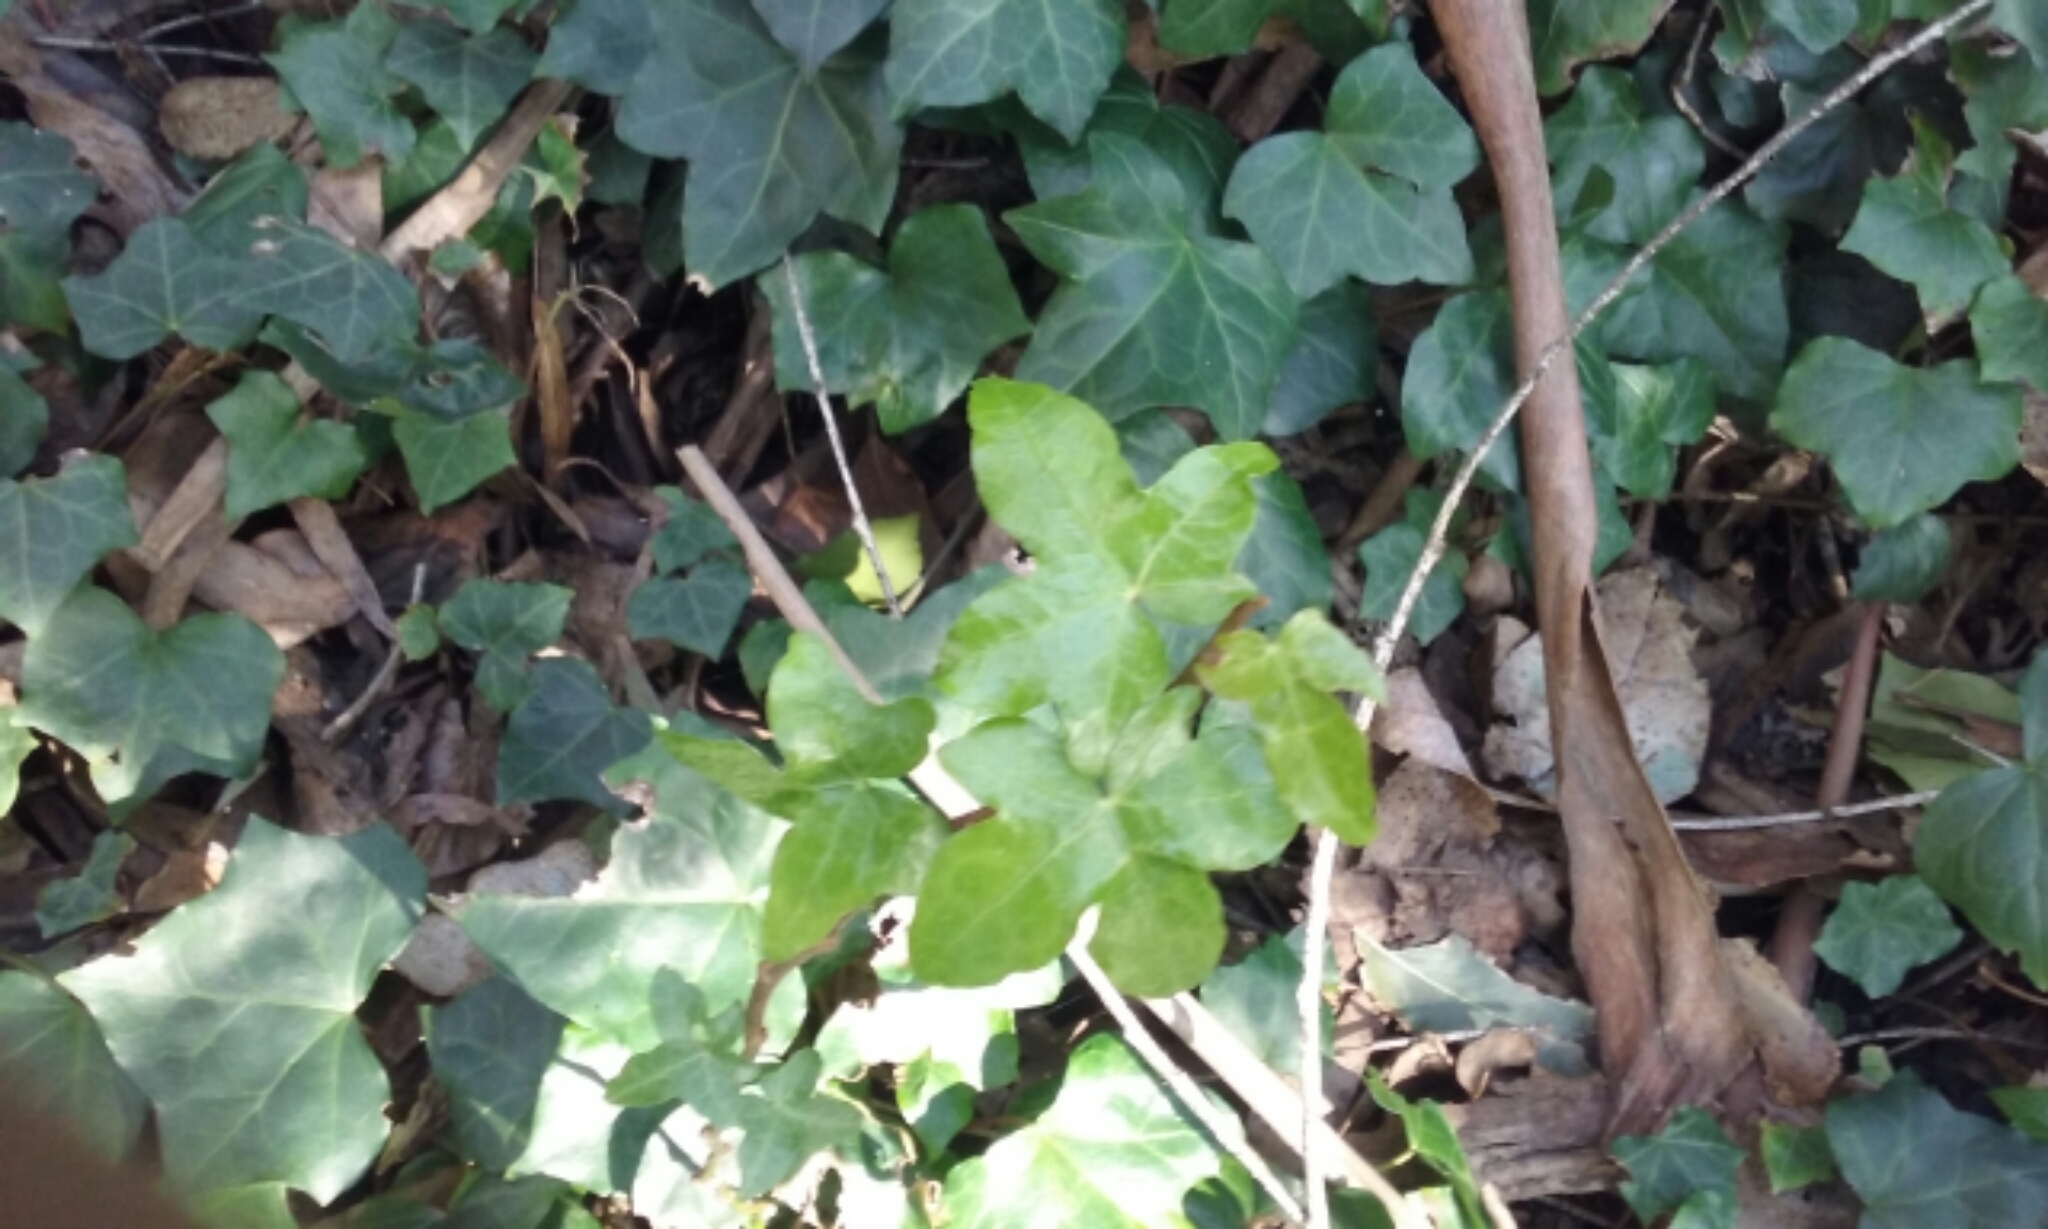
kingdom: Plantae
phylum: Tracheophyta
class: Magnoliopsida
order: Apiales
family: Araliaceae
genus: Hedera
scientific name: Hedera helix
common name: Ivy
